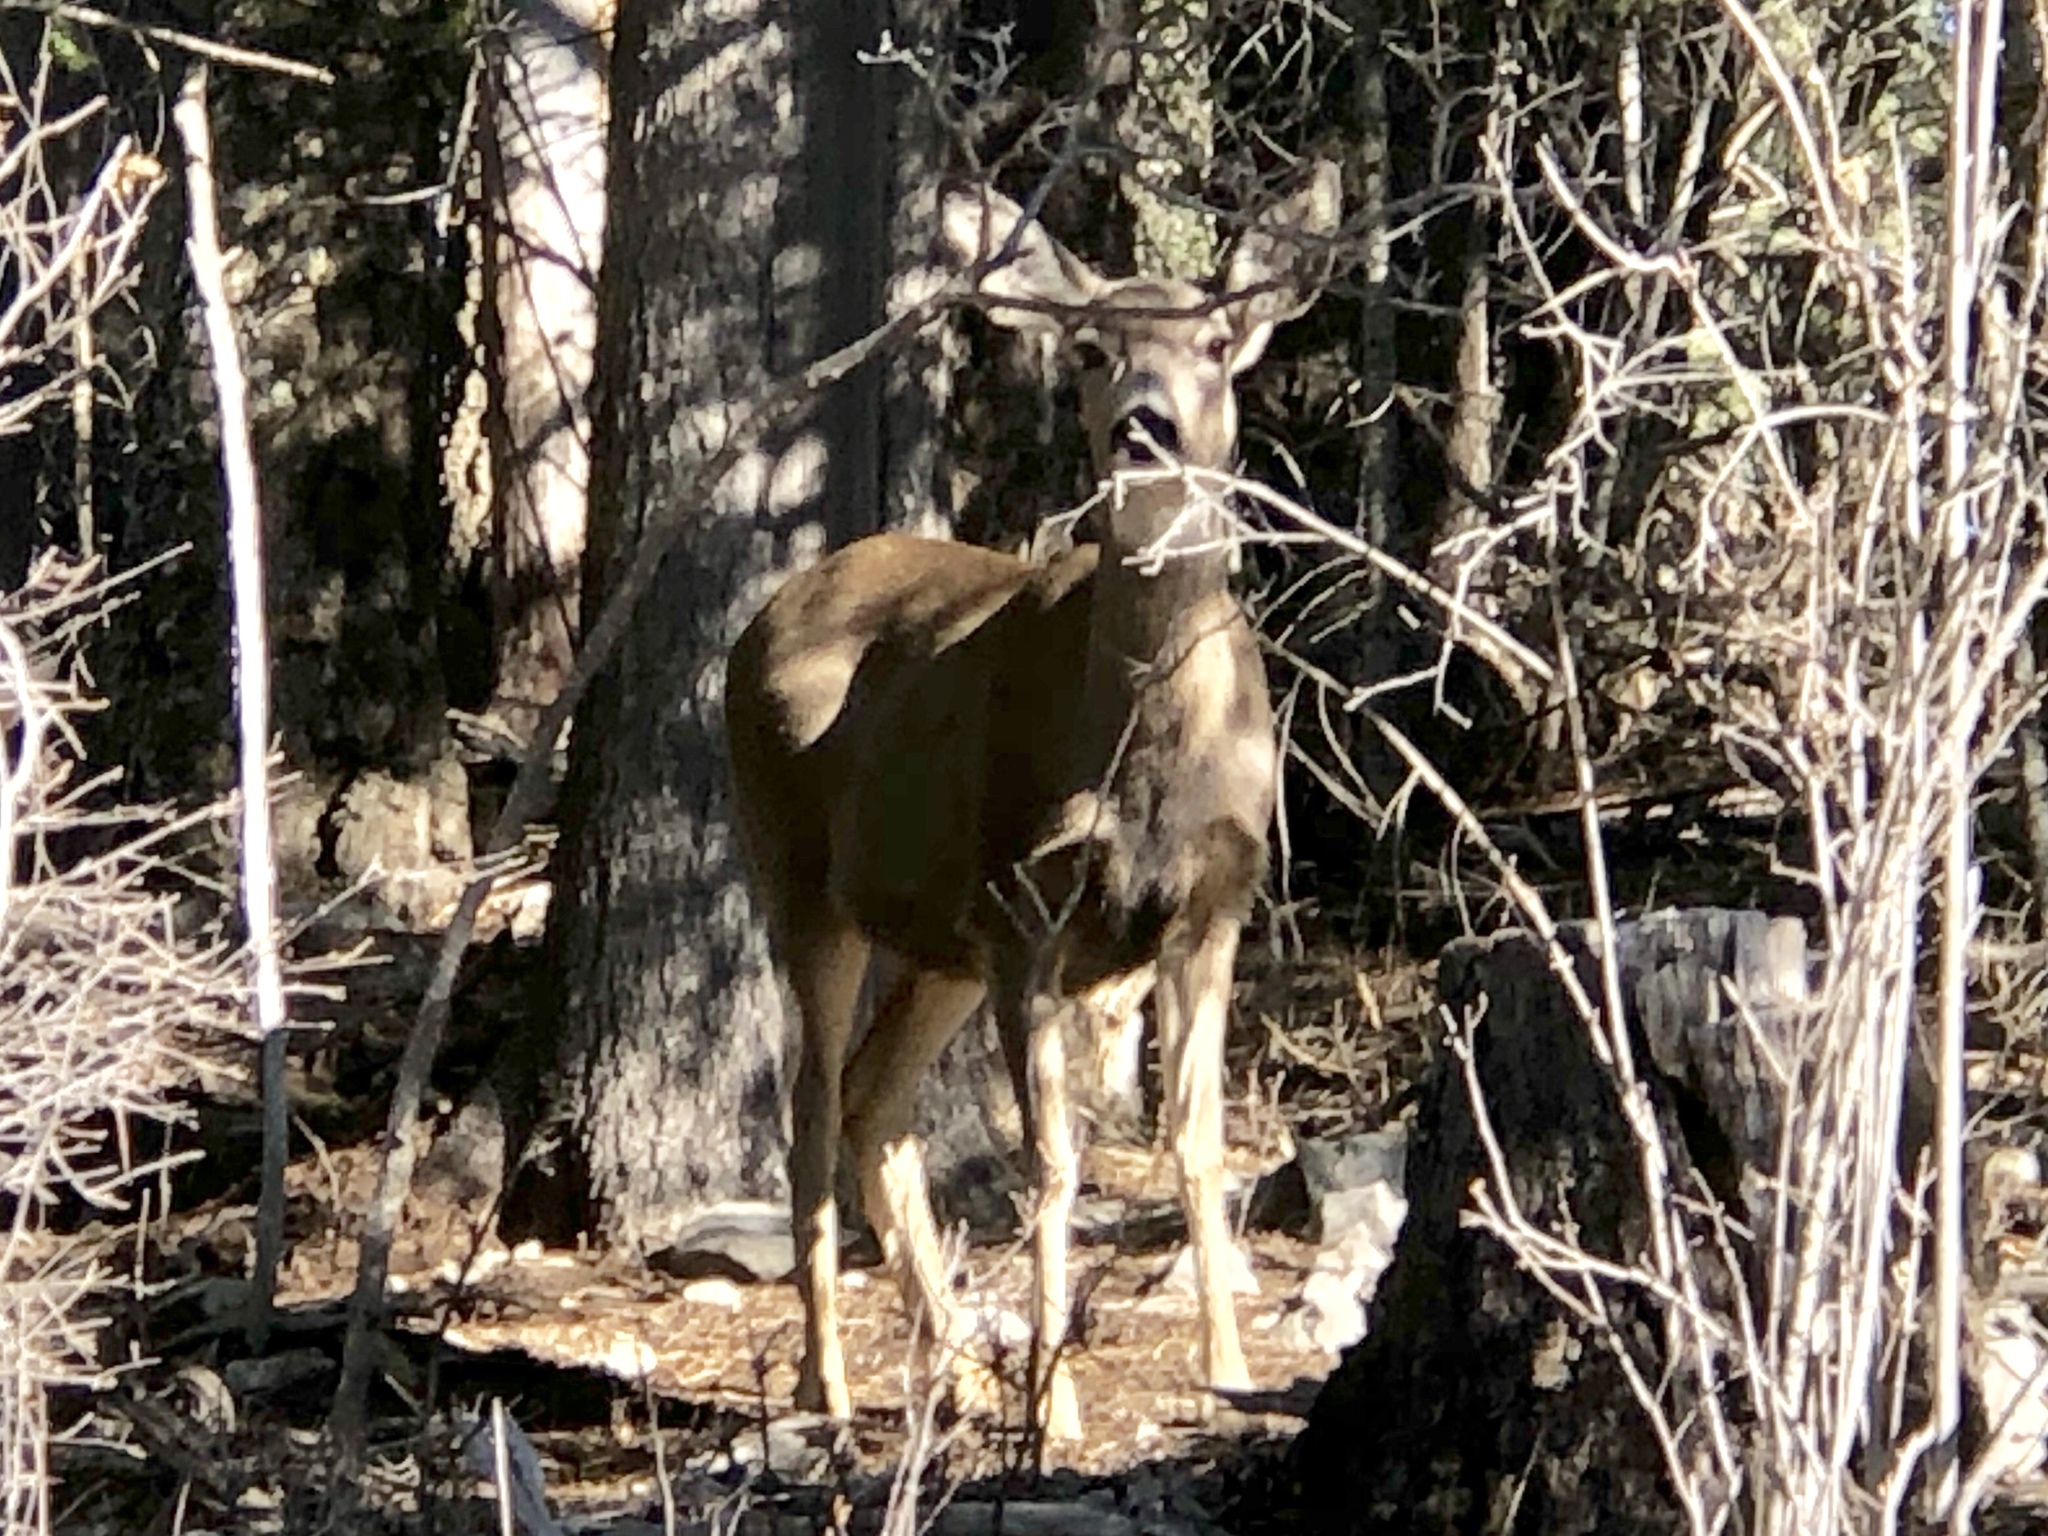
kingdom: Animalia
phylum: Chordata
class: Mammalia
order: Artiodactyla
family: Cervidae
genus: Odocoileus
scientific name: Odocoileus hemionus
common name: Mule deer
